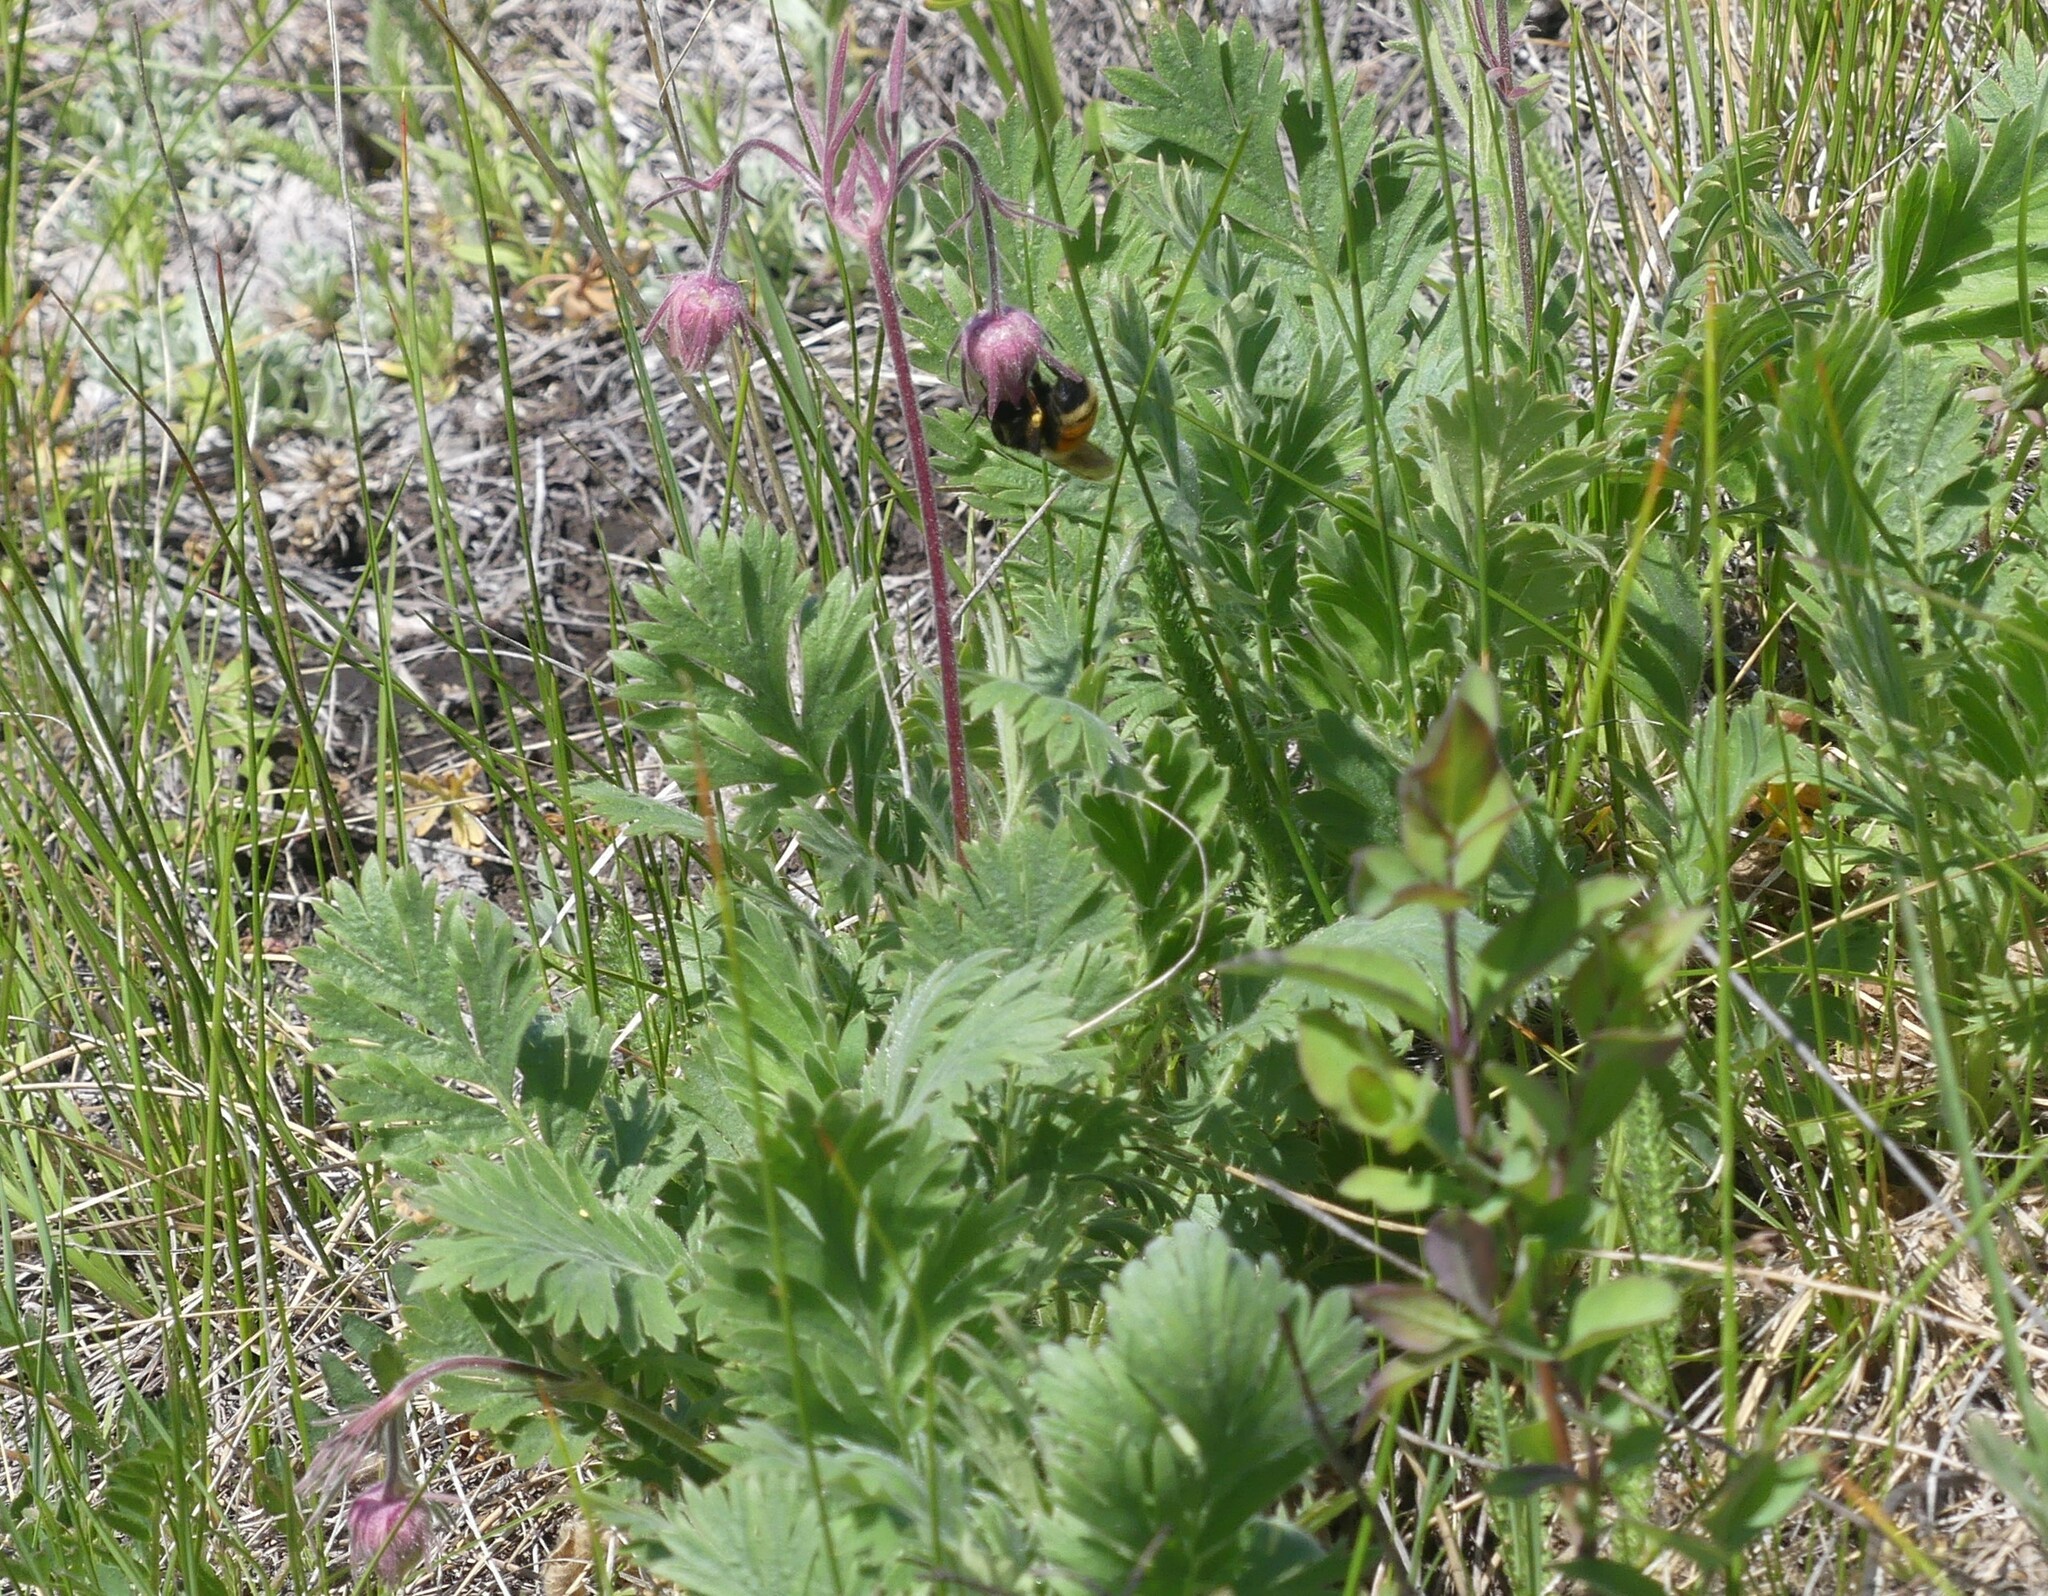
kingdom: Animalia
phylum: Arthropoda
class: Insecta
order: Hymenoptera
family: Apidae
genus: Bombus
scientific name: Bombus vancouverensis
